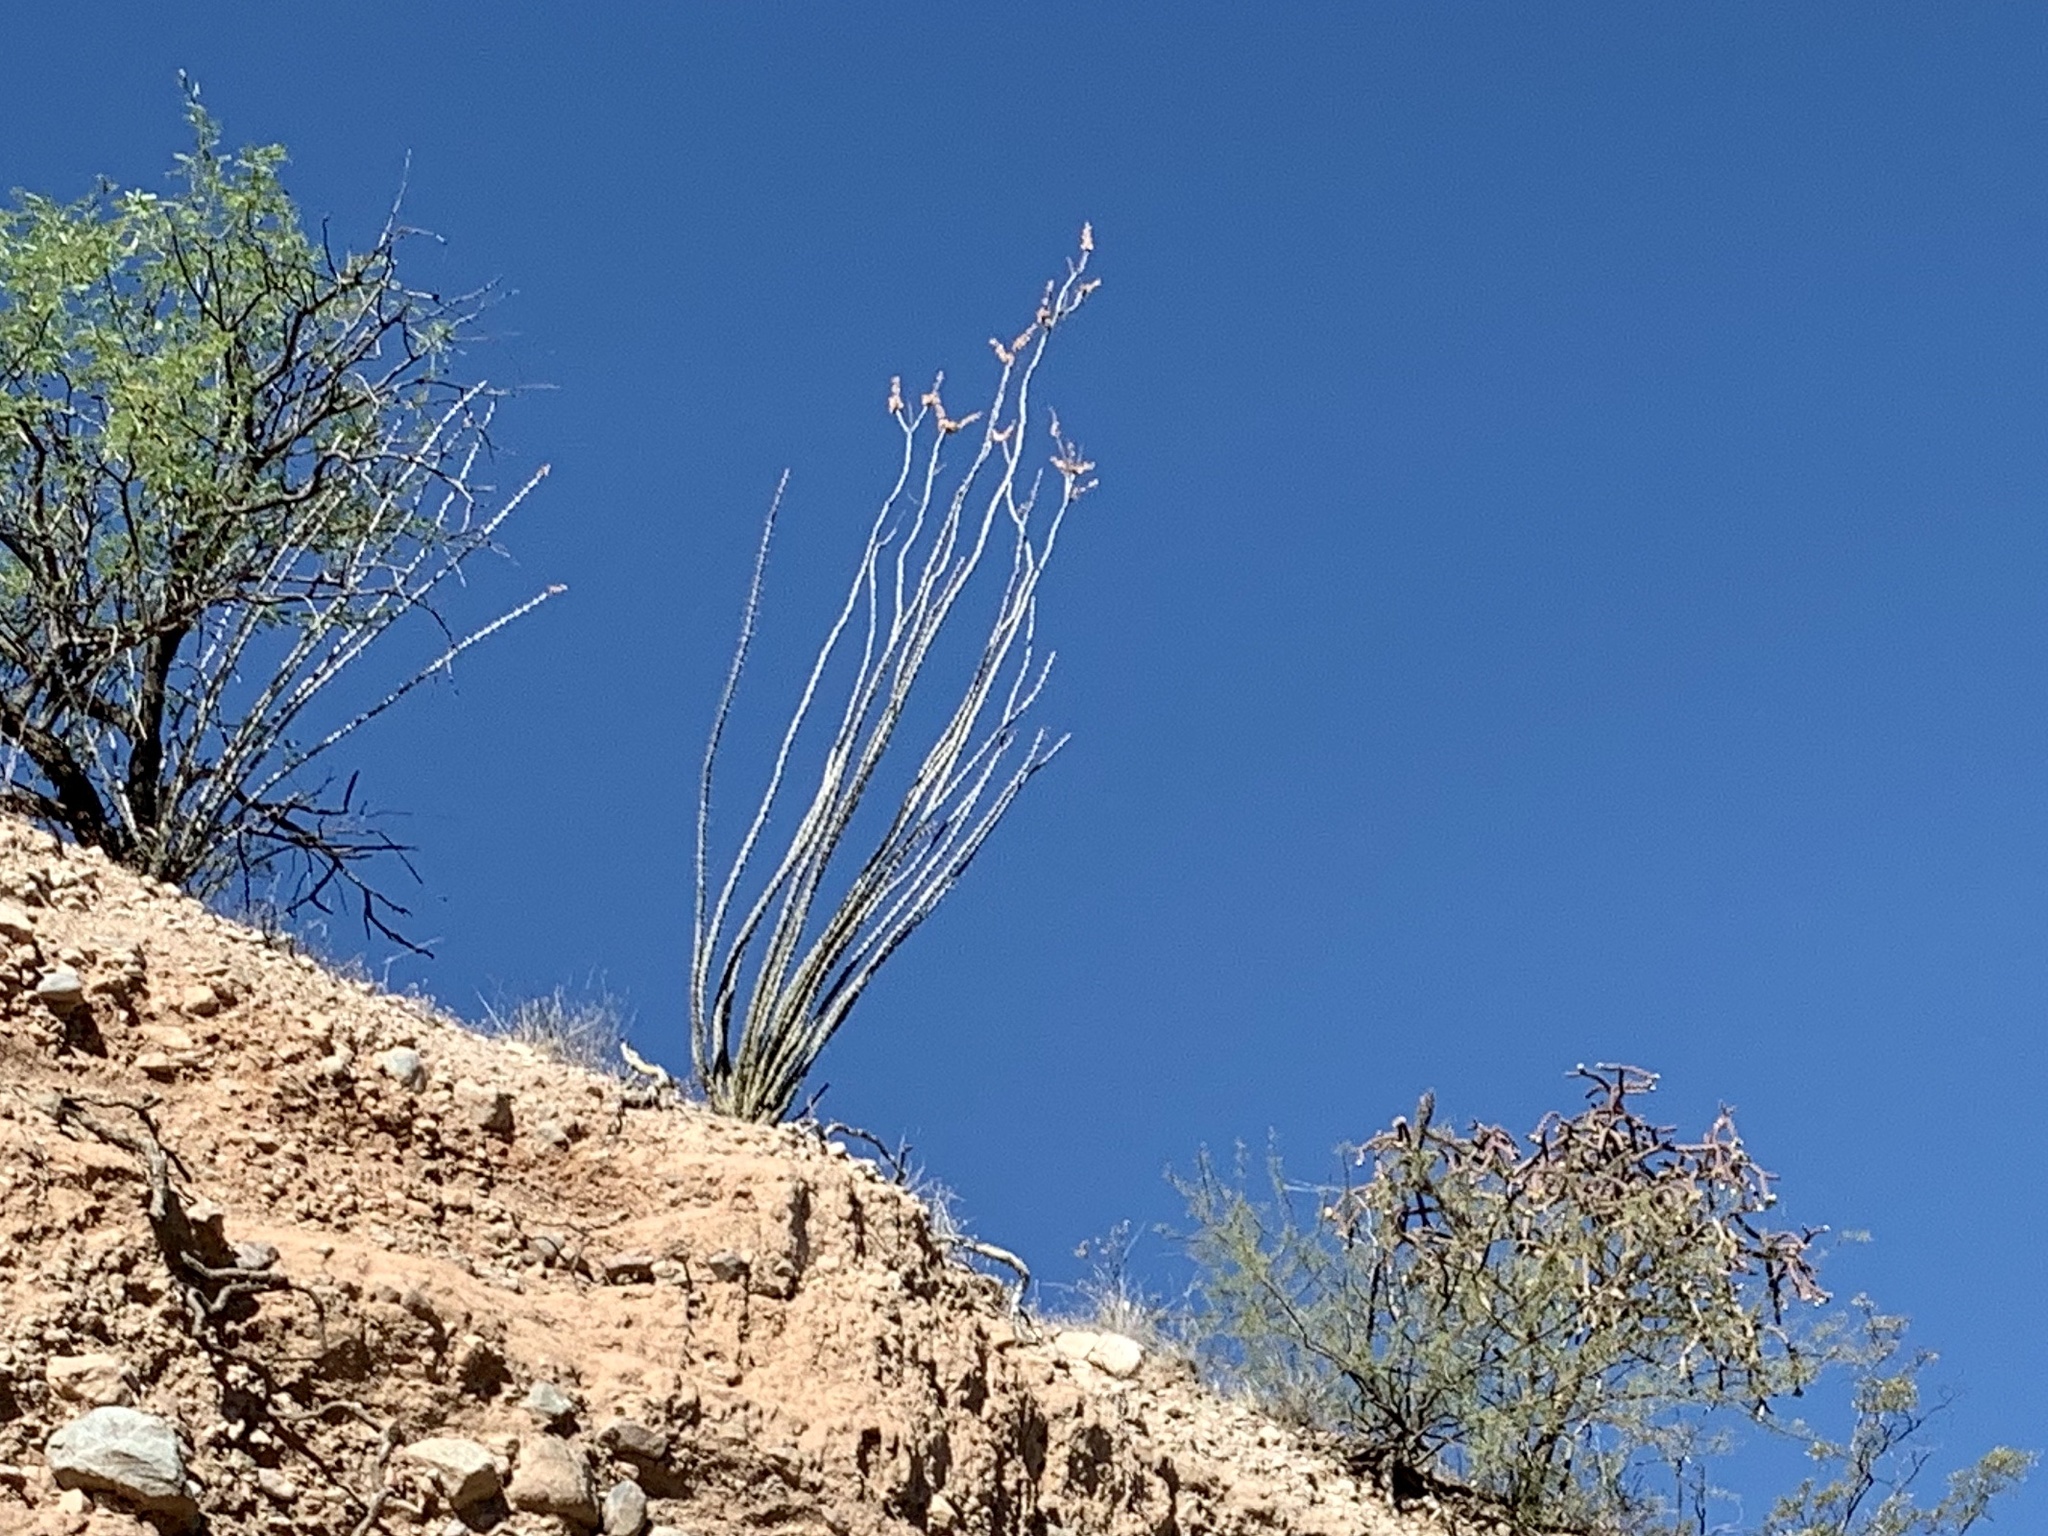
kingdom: Plantae
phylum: Tracheophyta
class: Magnoliopsida
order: Ericales
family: Fouquieriaceae
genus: Fouquieria
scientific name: Fouquieria splendens
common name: Vine-cactus
